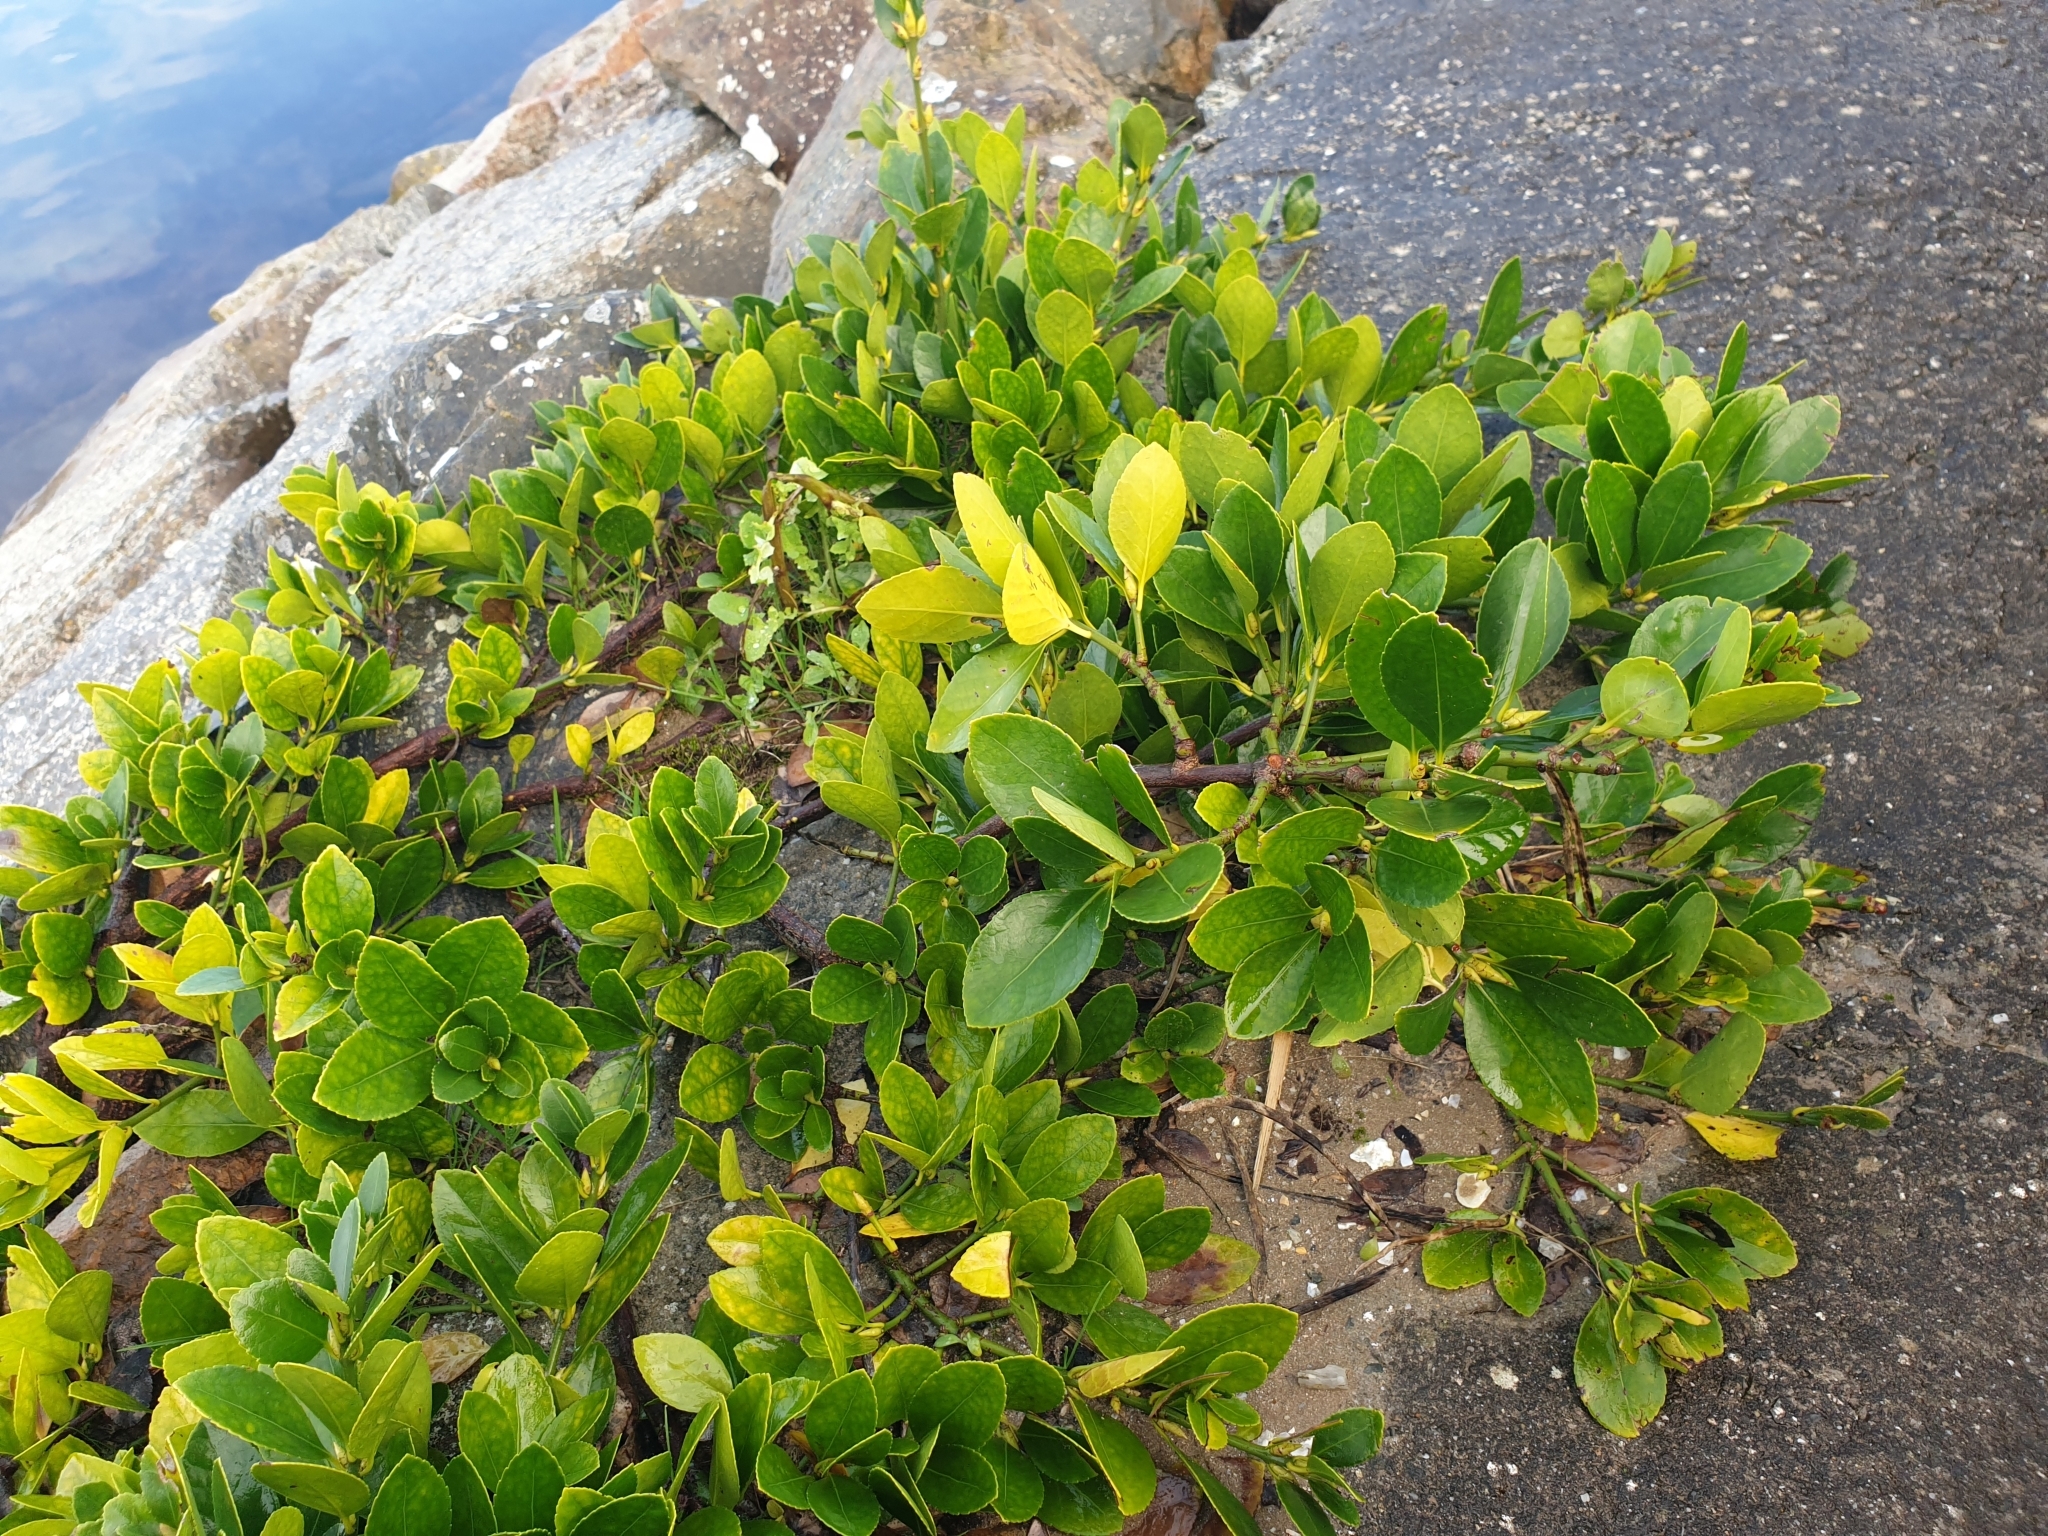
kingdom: Plantae
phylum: Tracheophyta
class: Magnoliopsida
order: Celastrales
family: Celastraceae
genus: Euonymus
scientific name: Euonymus japonicus
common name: Japanese spindletree
